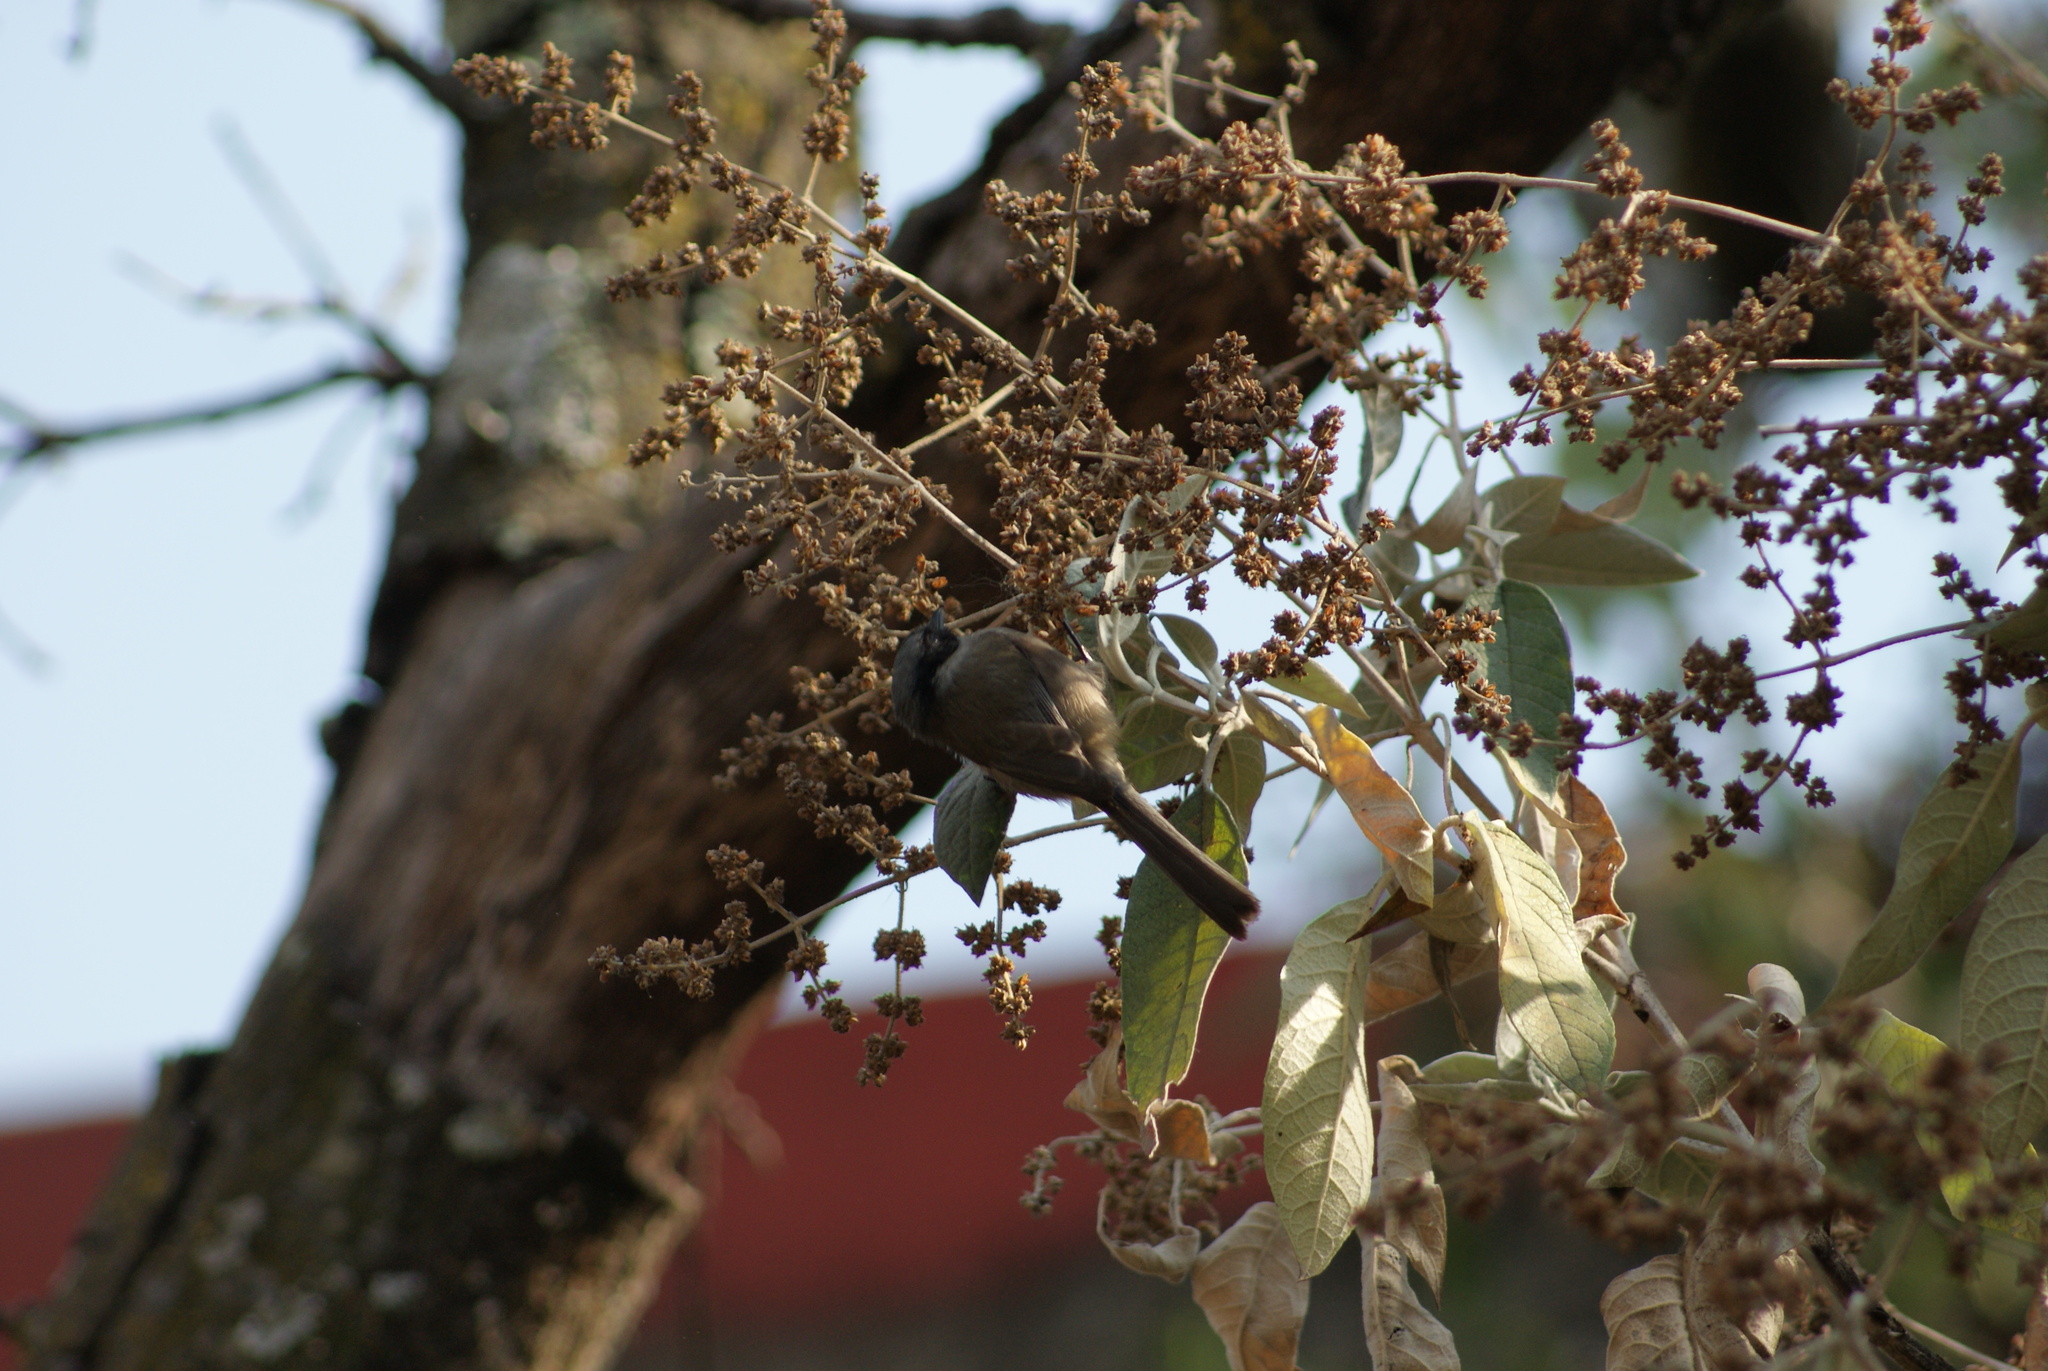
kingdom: Animalia
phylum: Chordata
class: Aves
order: Passeriformes
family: Aegithalidae
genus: Psaltriparus
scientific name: Psaltriparus minimus
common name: American bushtit
